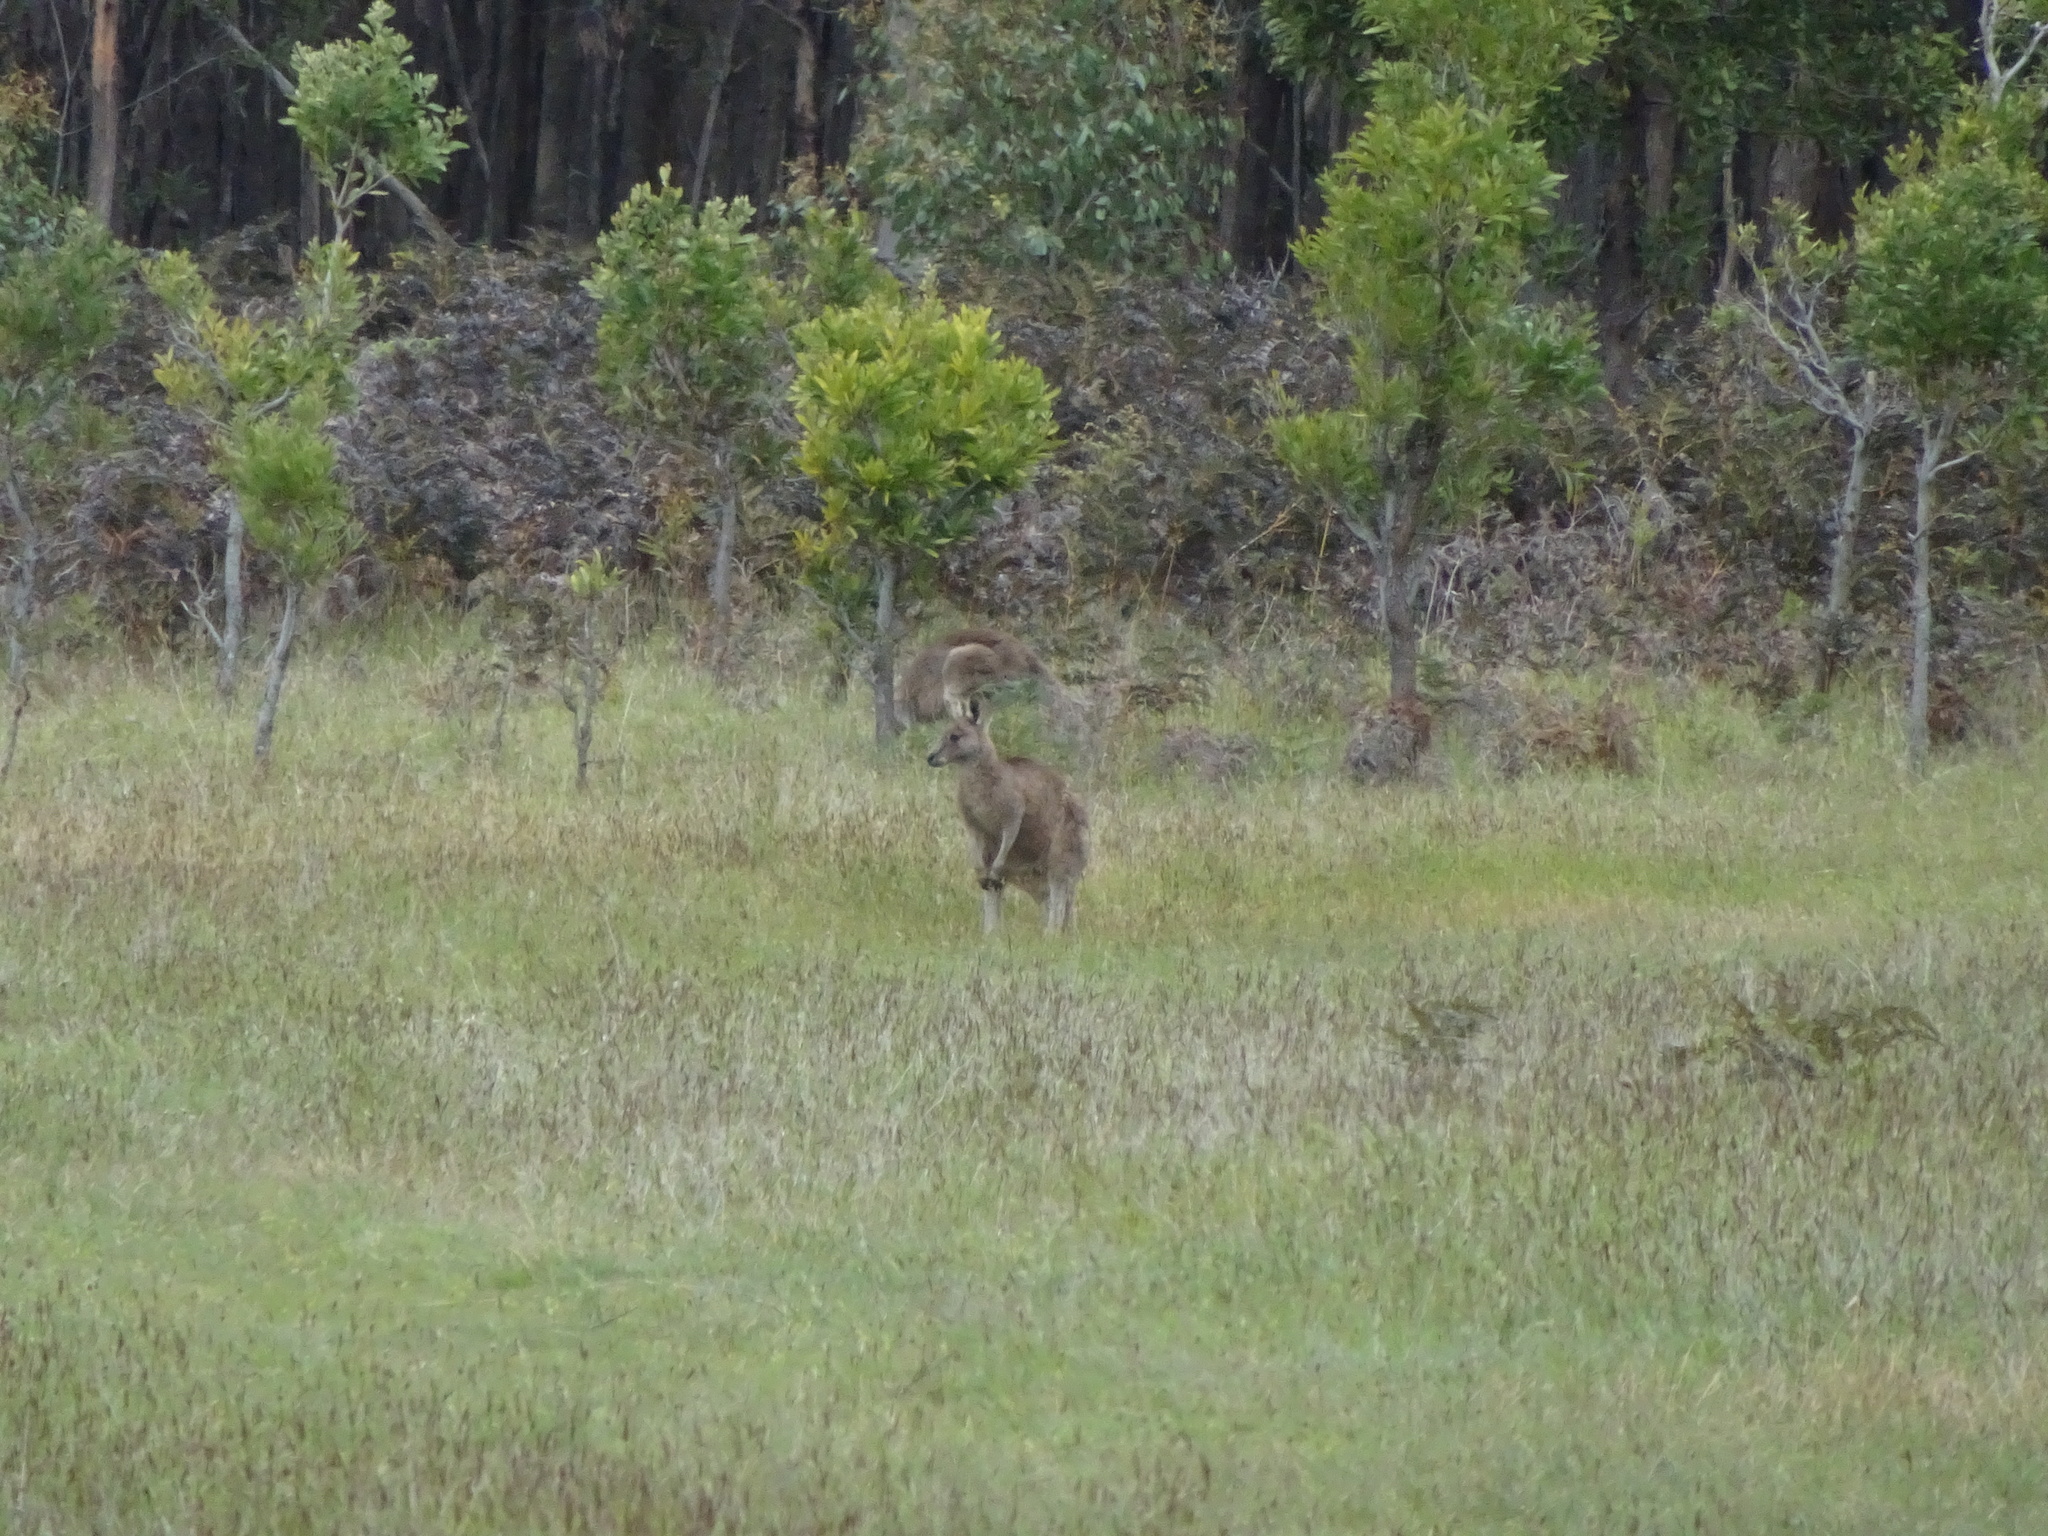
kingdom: Animalia
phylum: Chordata
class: Mammalia
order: Diprotodontia
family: Macropodidae
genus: Macropus
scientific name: Macropus giganteus
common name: Eastern grey kangaroo
